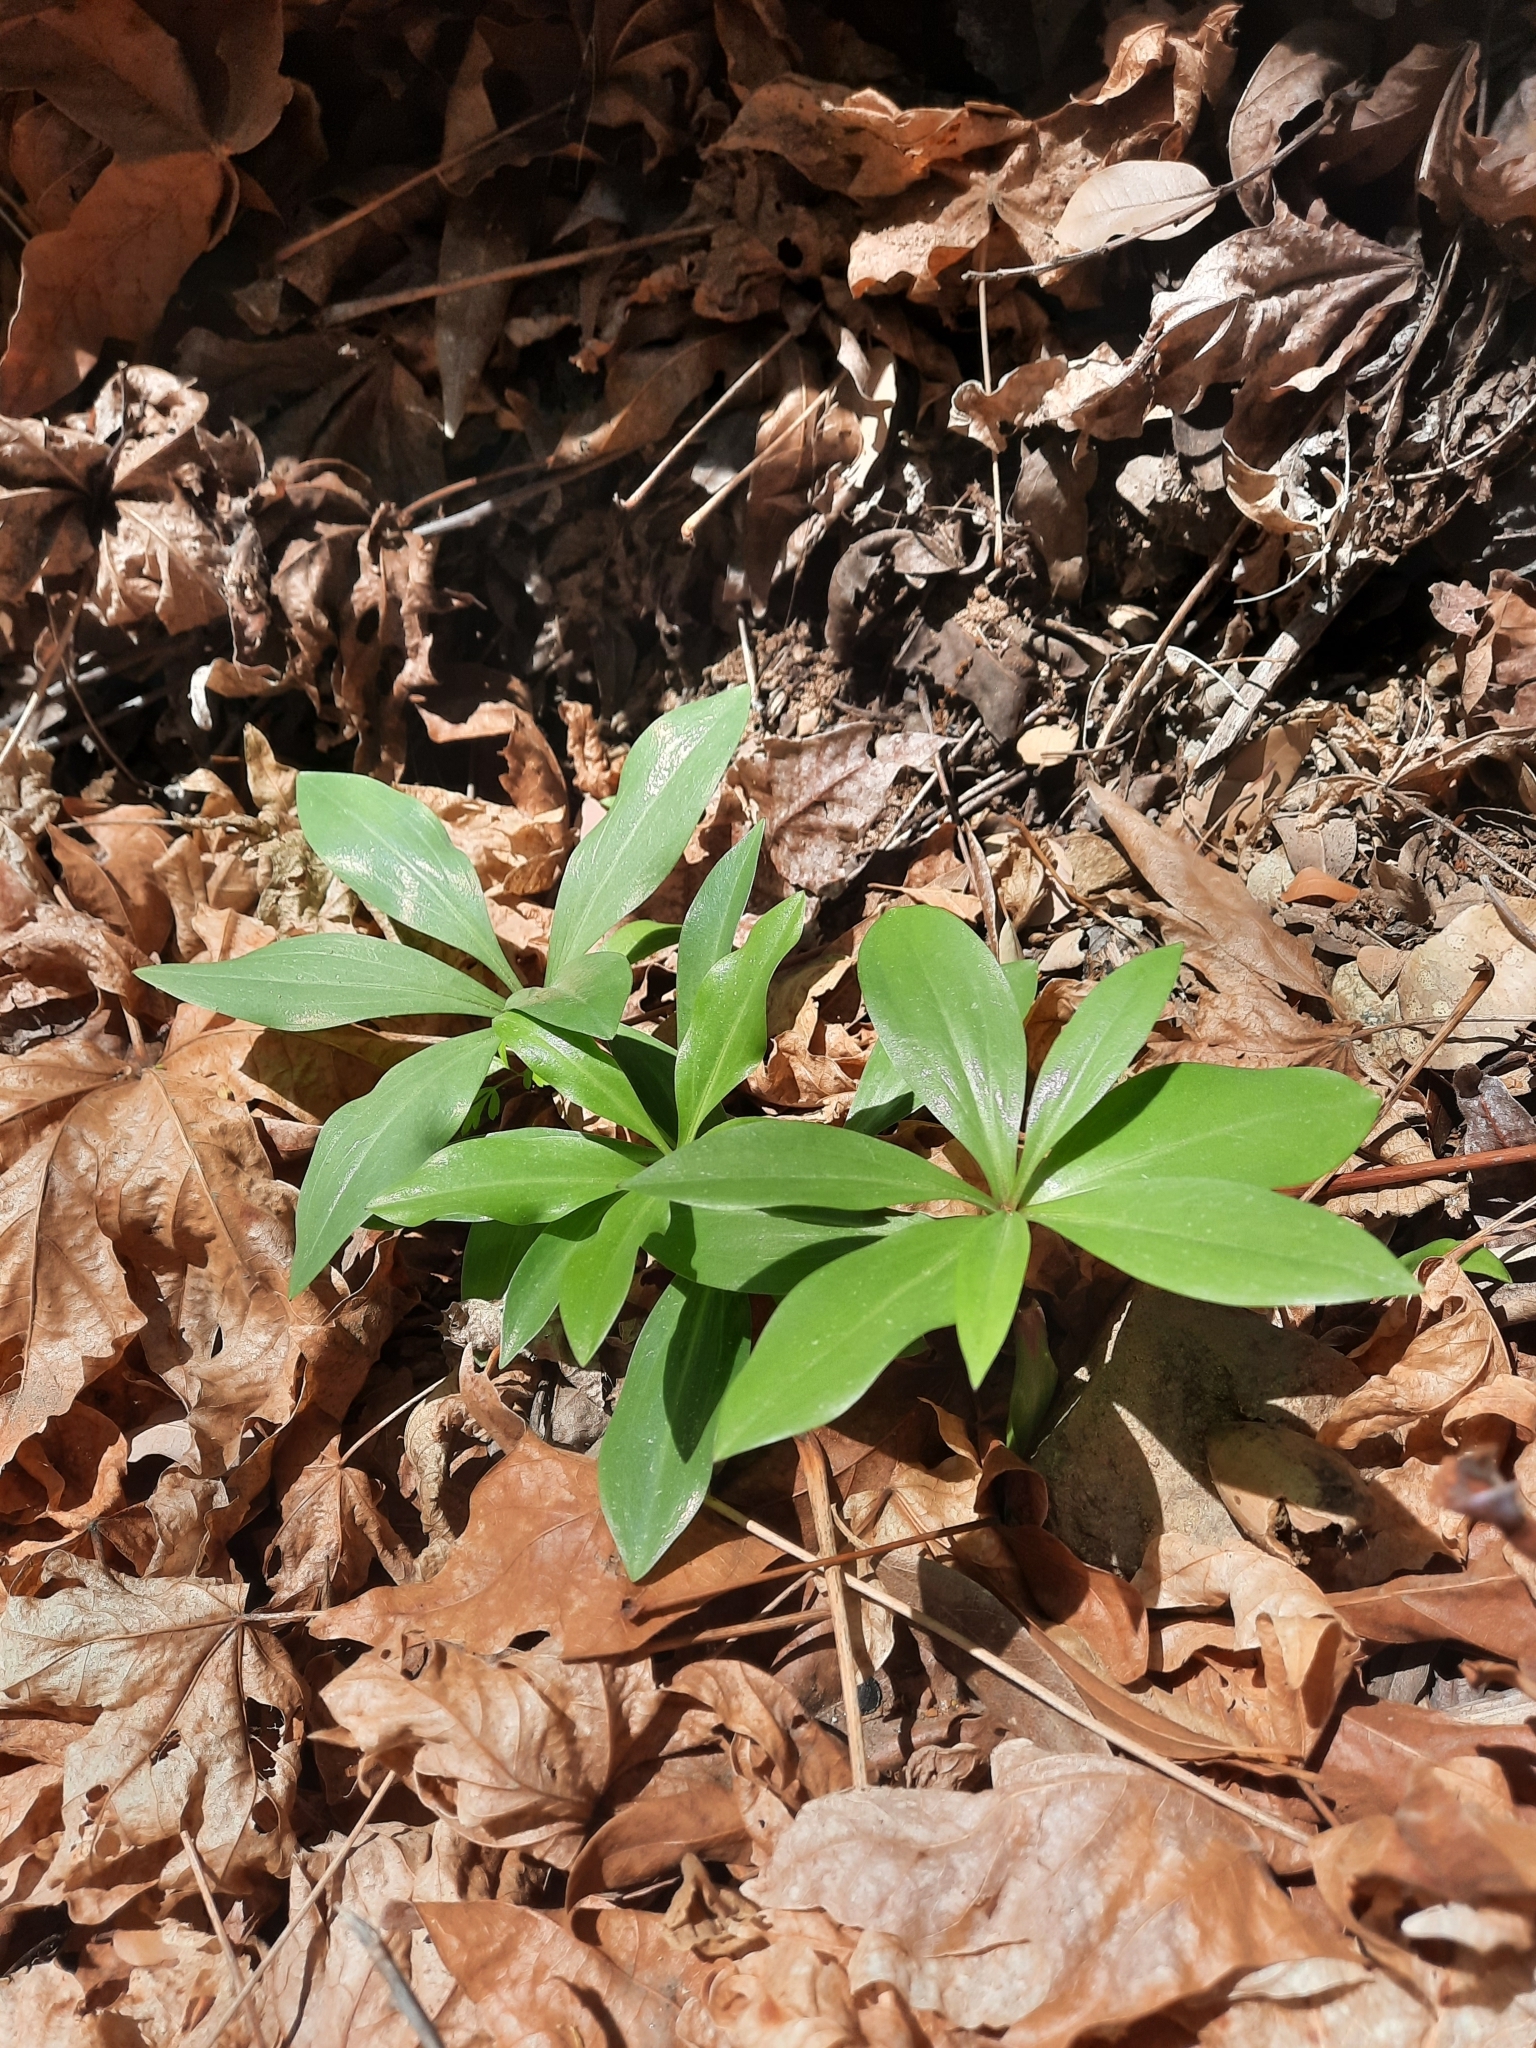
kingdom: Plantae
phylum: Tracheophyta
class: Liliopsida
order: Liliales
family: Liliaceae
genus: Lilium
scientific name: Lilium humboldtii
